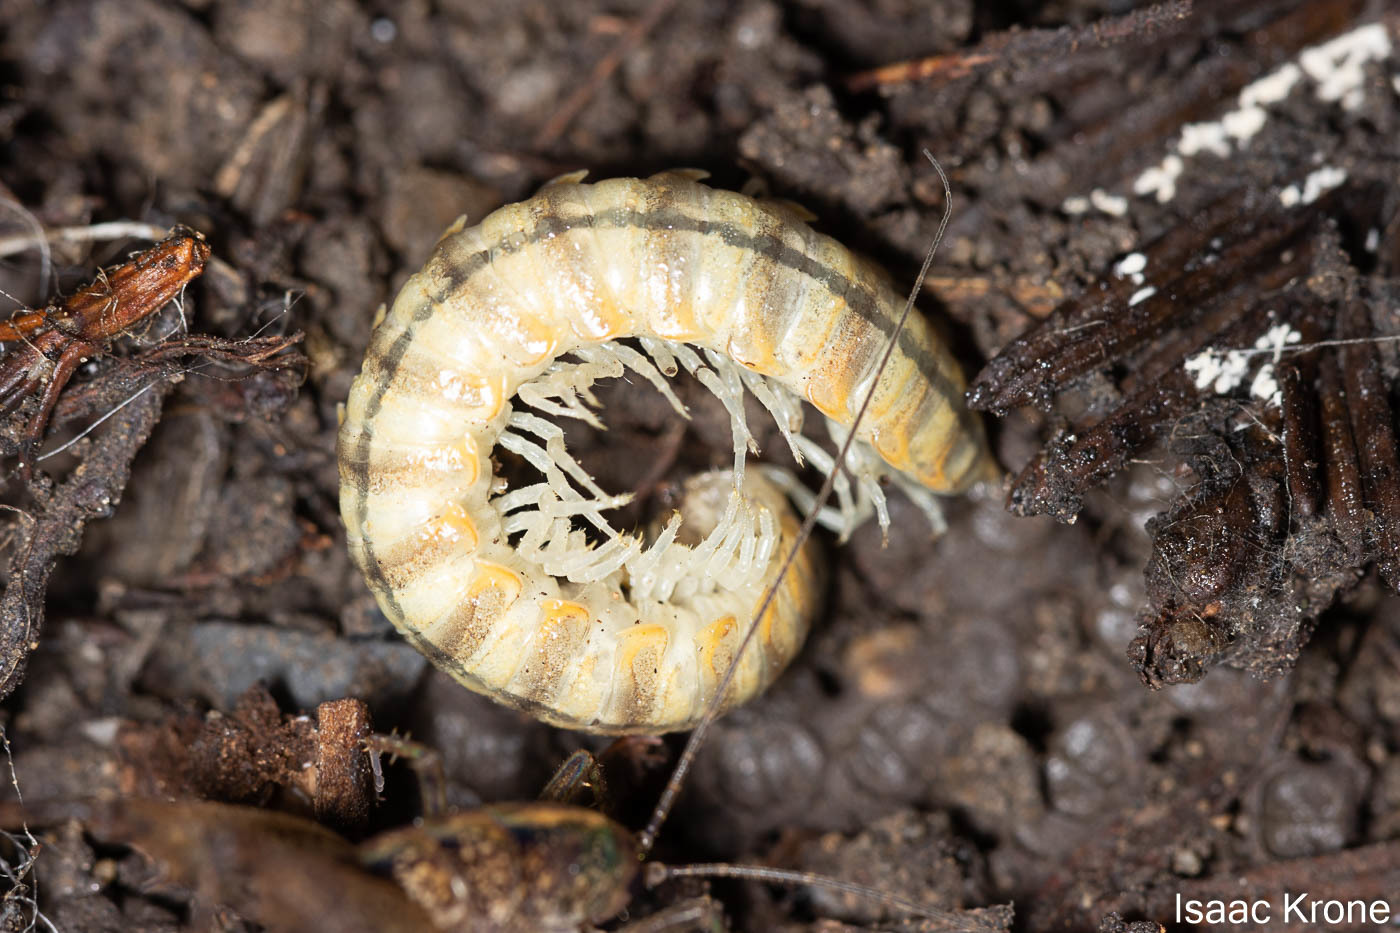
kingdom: Animalia
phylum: Arthropoda
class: Diplopoda
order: Polydesmida
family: Xystodesmidae
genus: Xystocheir
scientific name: Xystocheir dissecta
